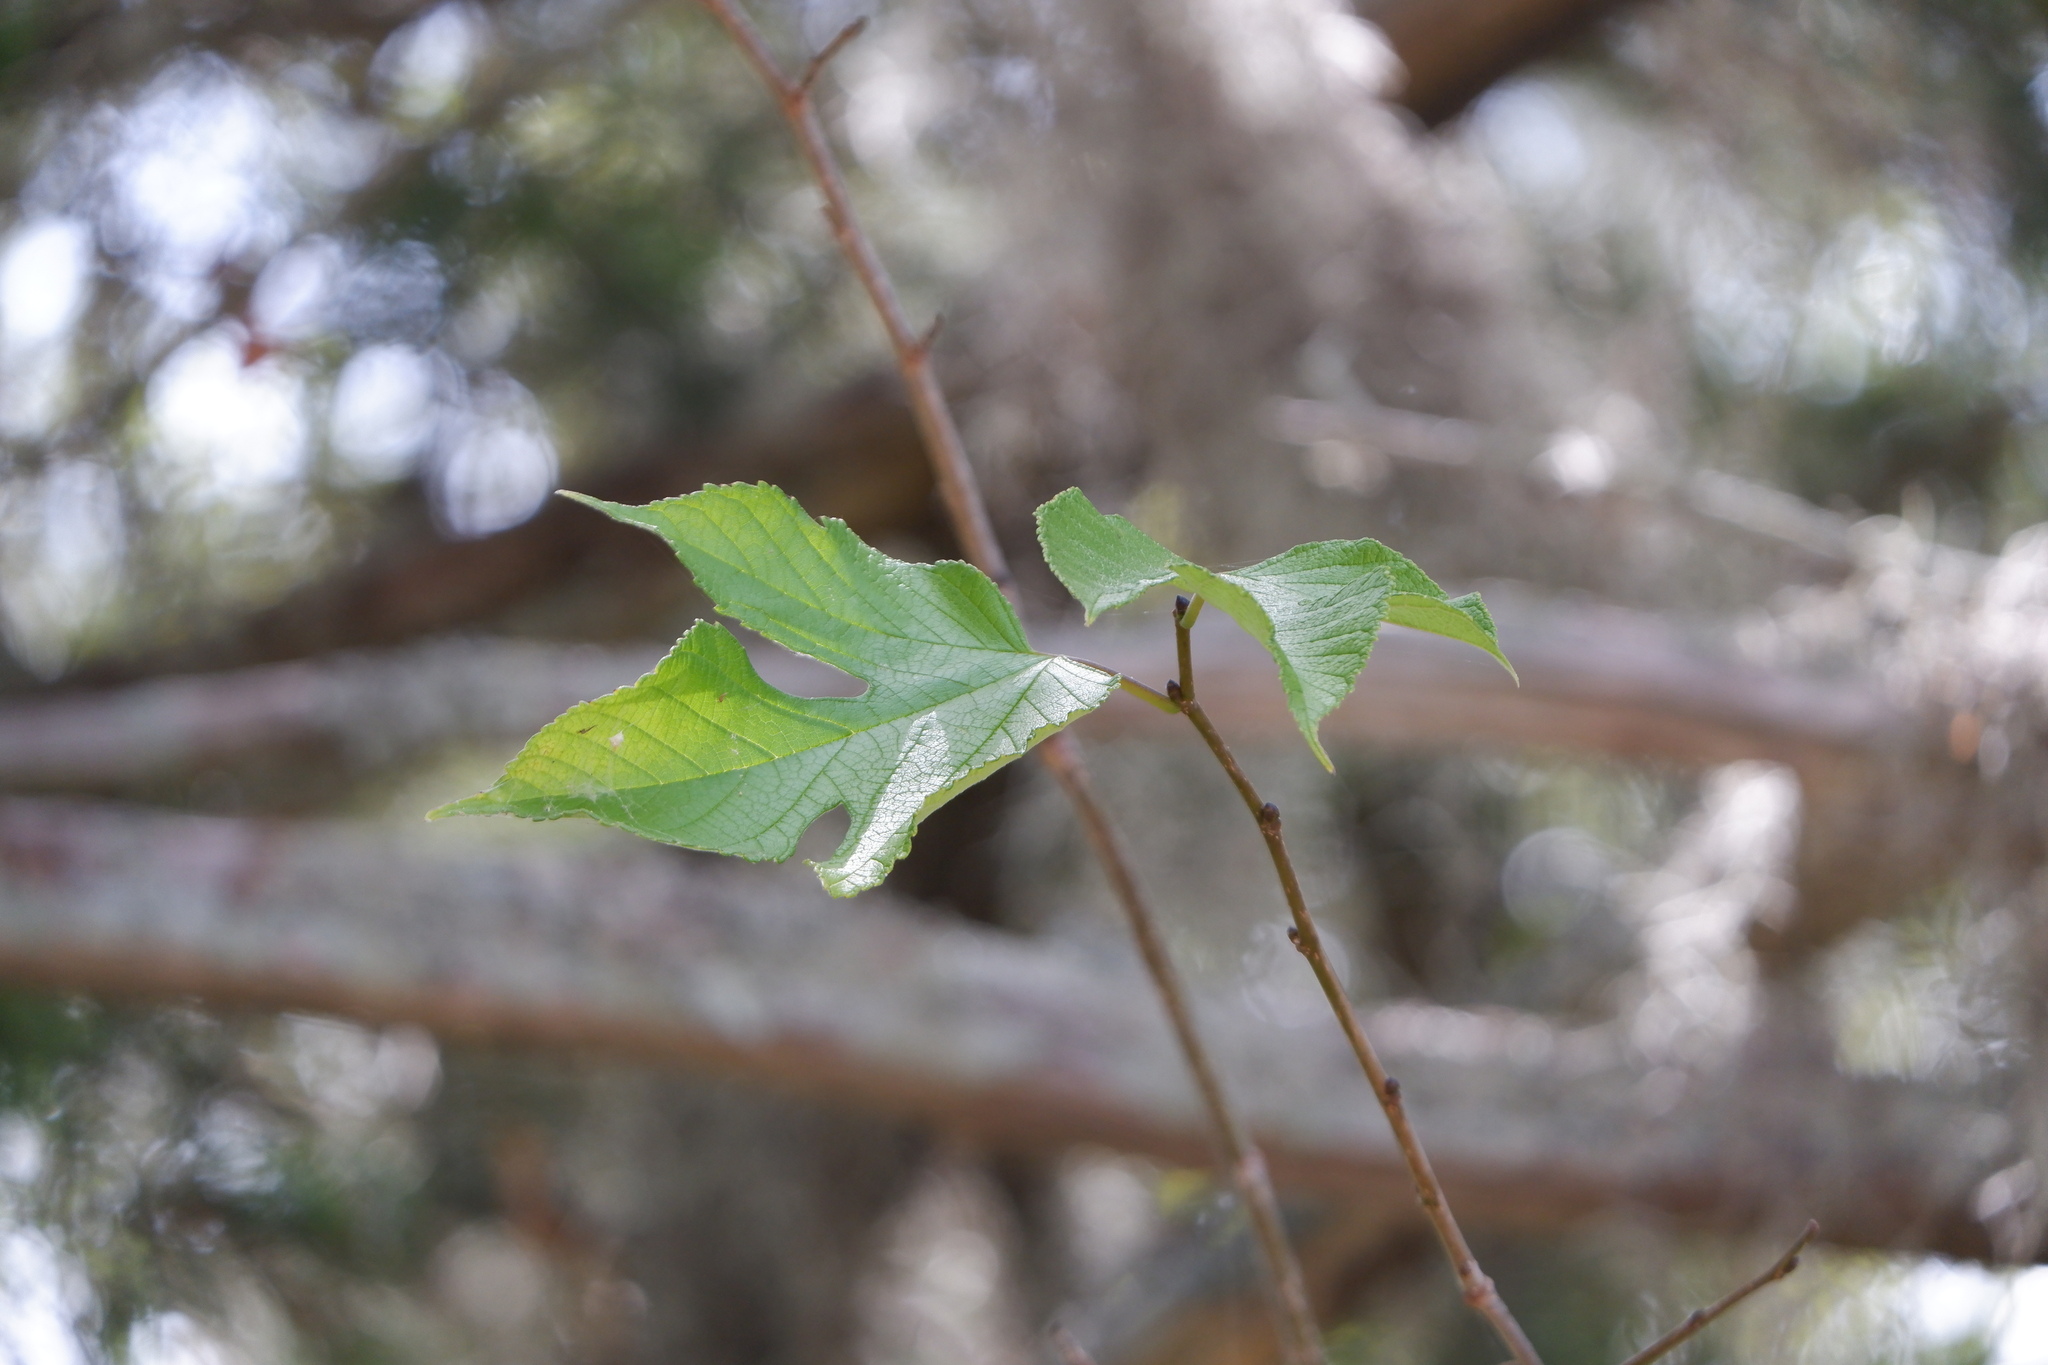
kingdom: Plantae
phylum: Tracheophyta
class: Magnoliopsida
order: Rosales
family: Moraceae
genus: Morus
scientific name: Morus rubra
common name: Red mulberry
